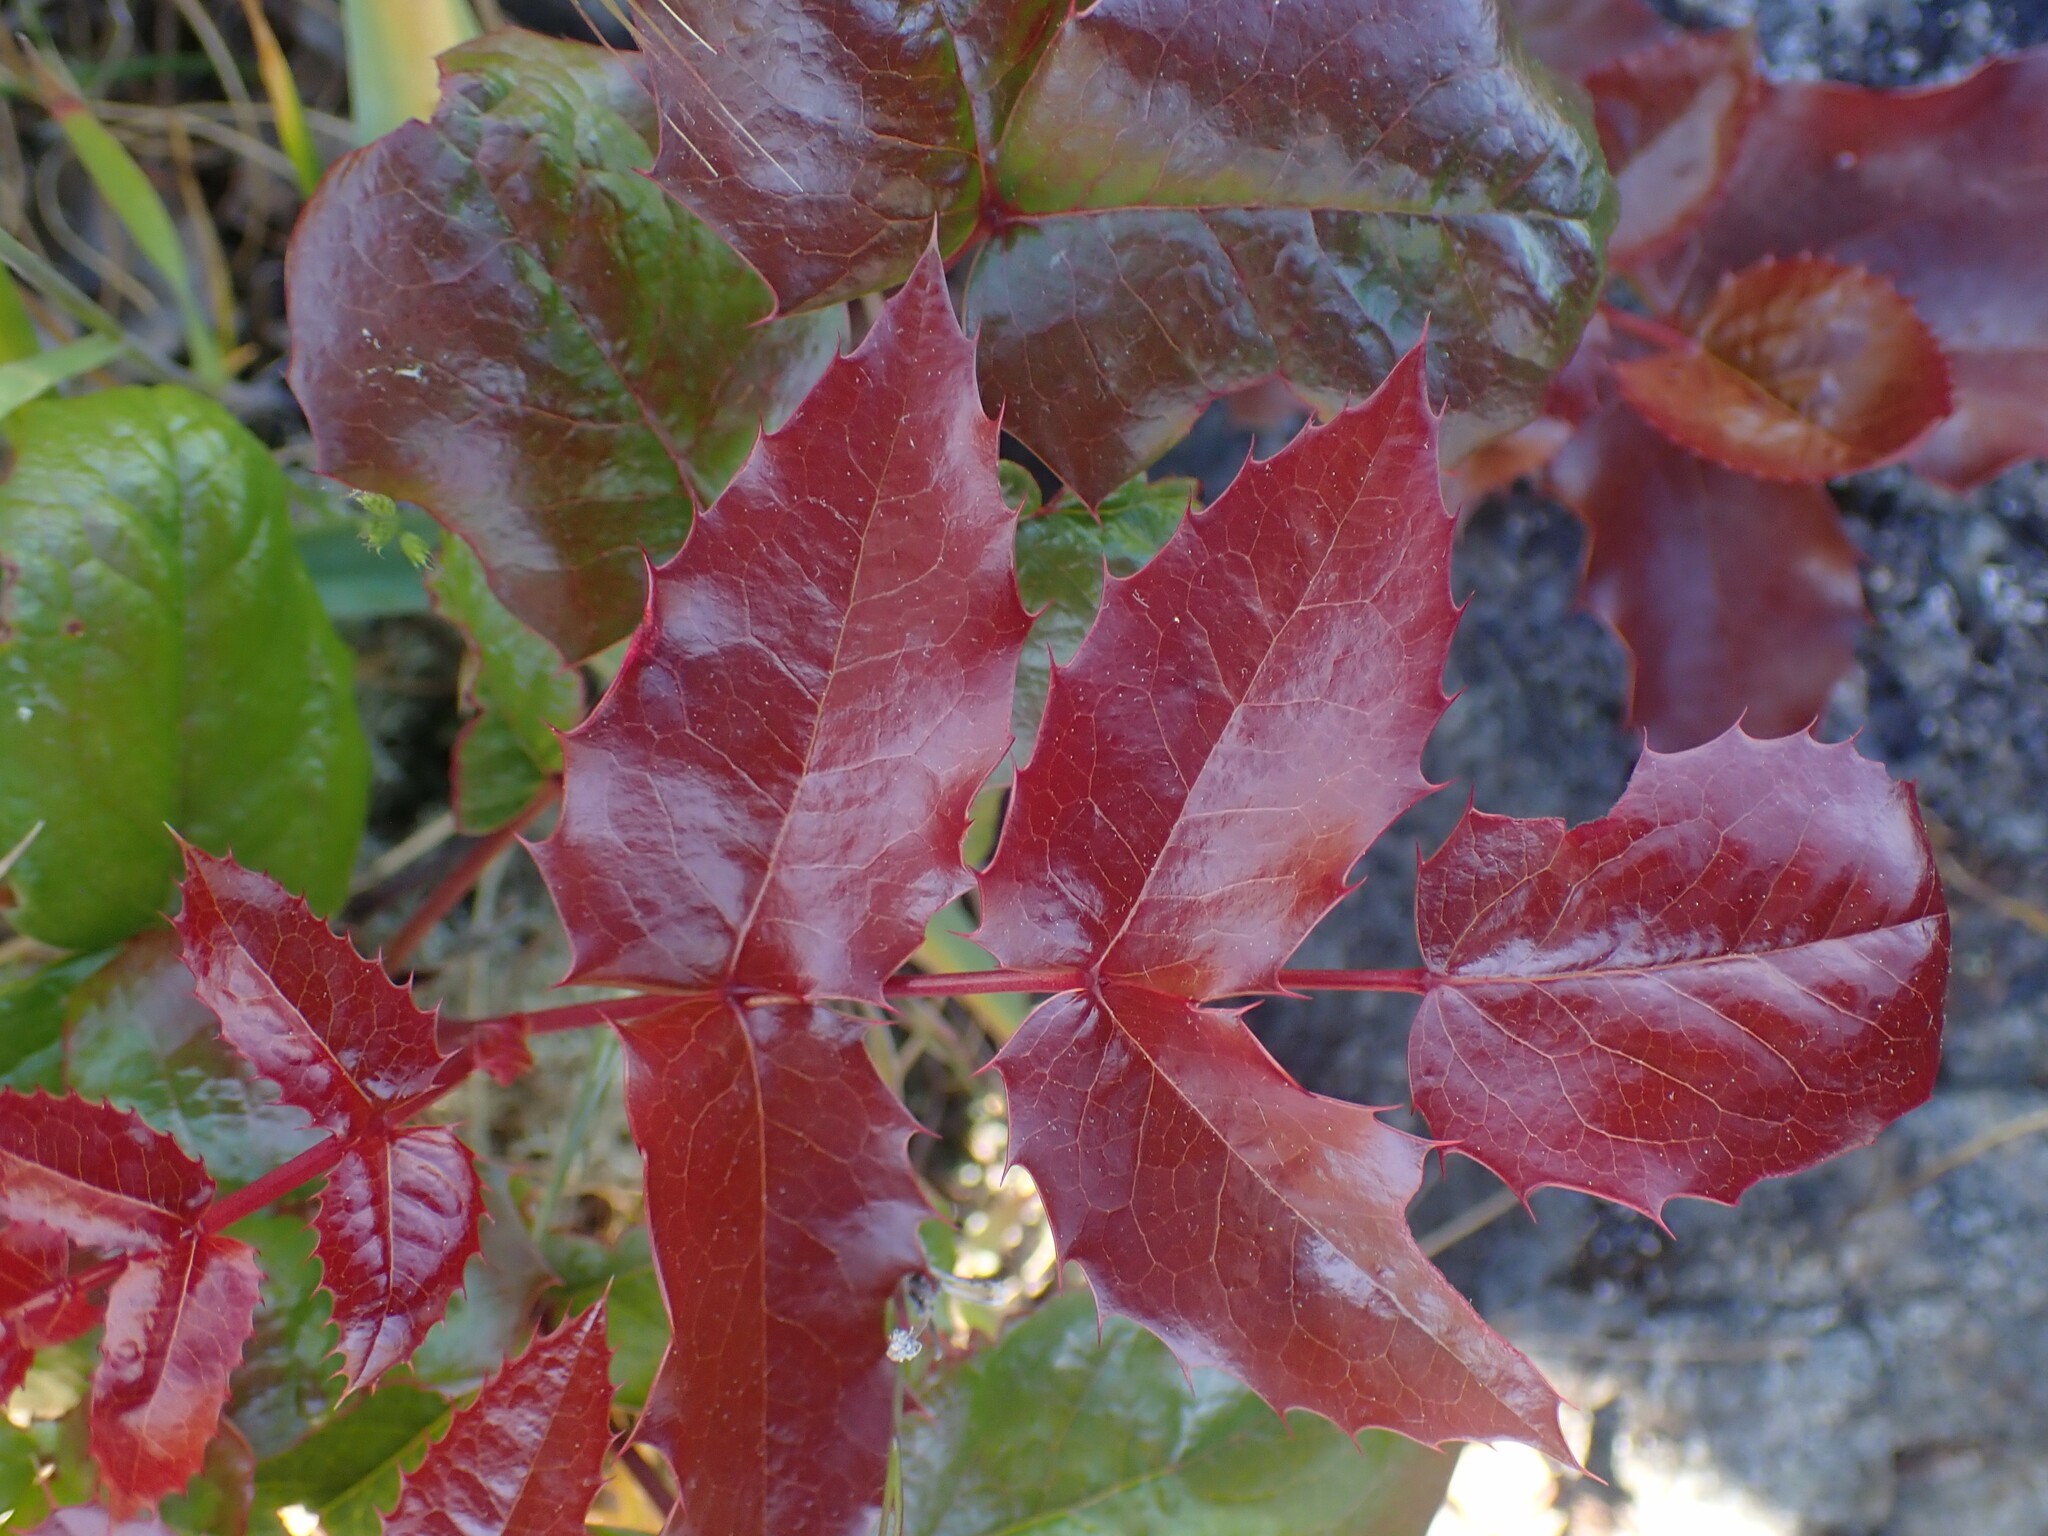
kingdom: Plantae
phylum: Tracheophyta
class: Magnoliopsida
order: Ranunculales
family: Berberidaceae
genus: Mahonia
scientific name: Mahonia aquifolium
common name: Oregon-grape
